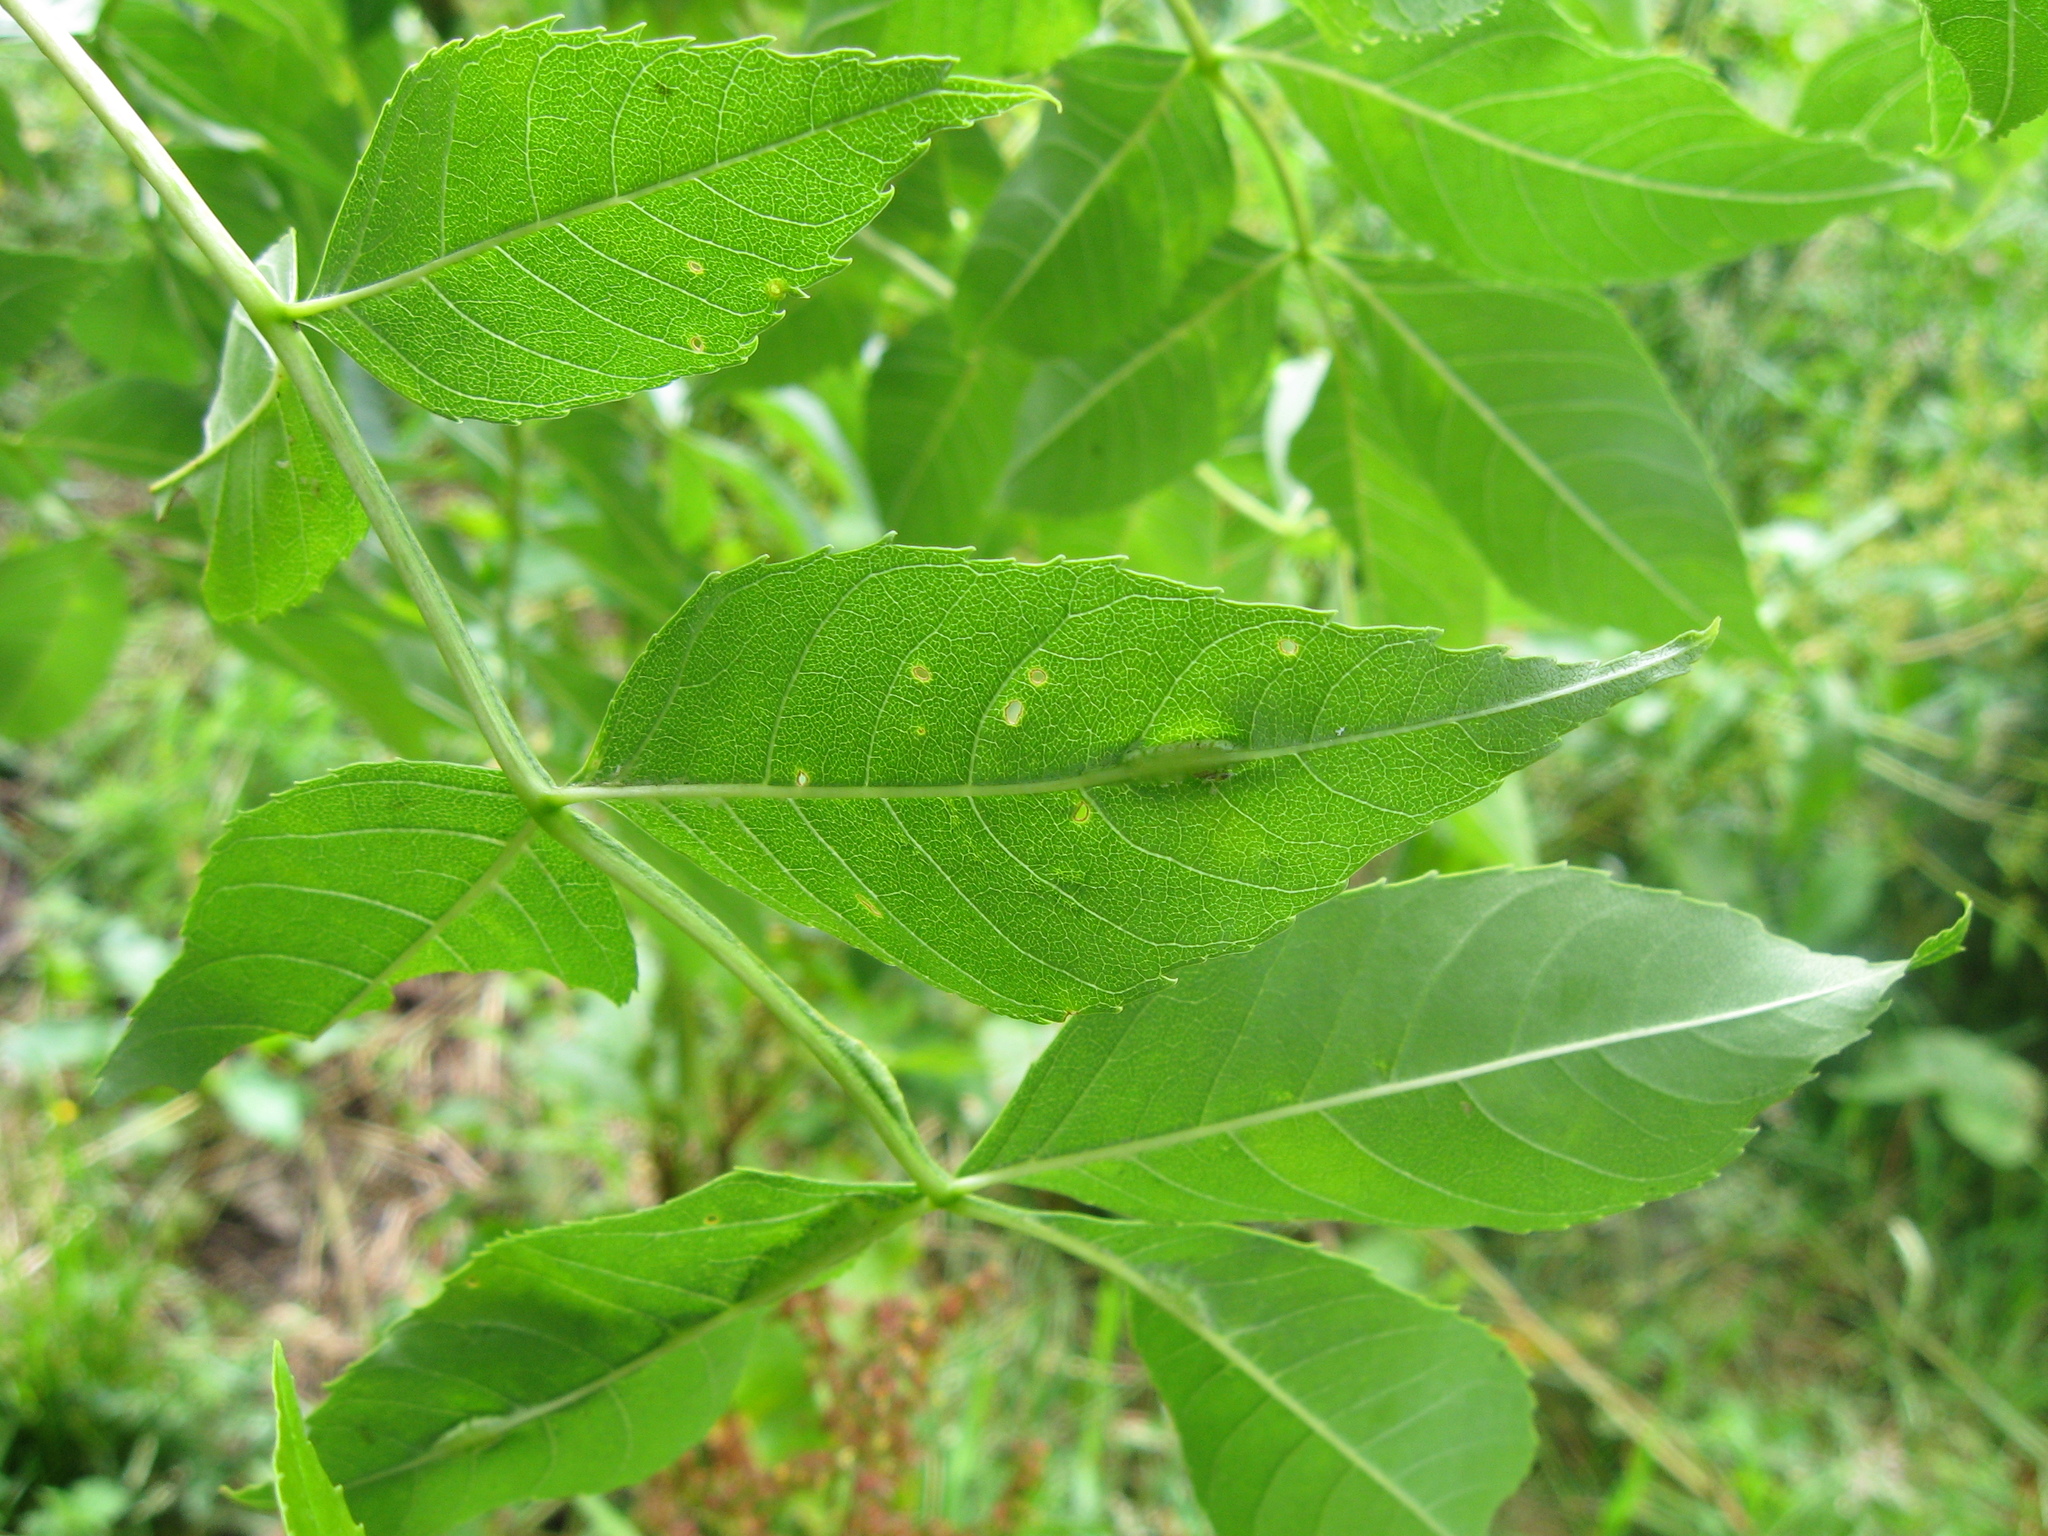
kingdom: Animalia
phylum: Arthropoda
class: Insecta
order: Diptera
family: Cecidomyiidae
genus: Dasineura
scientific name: Dasineura fraxini
